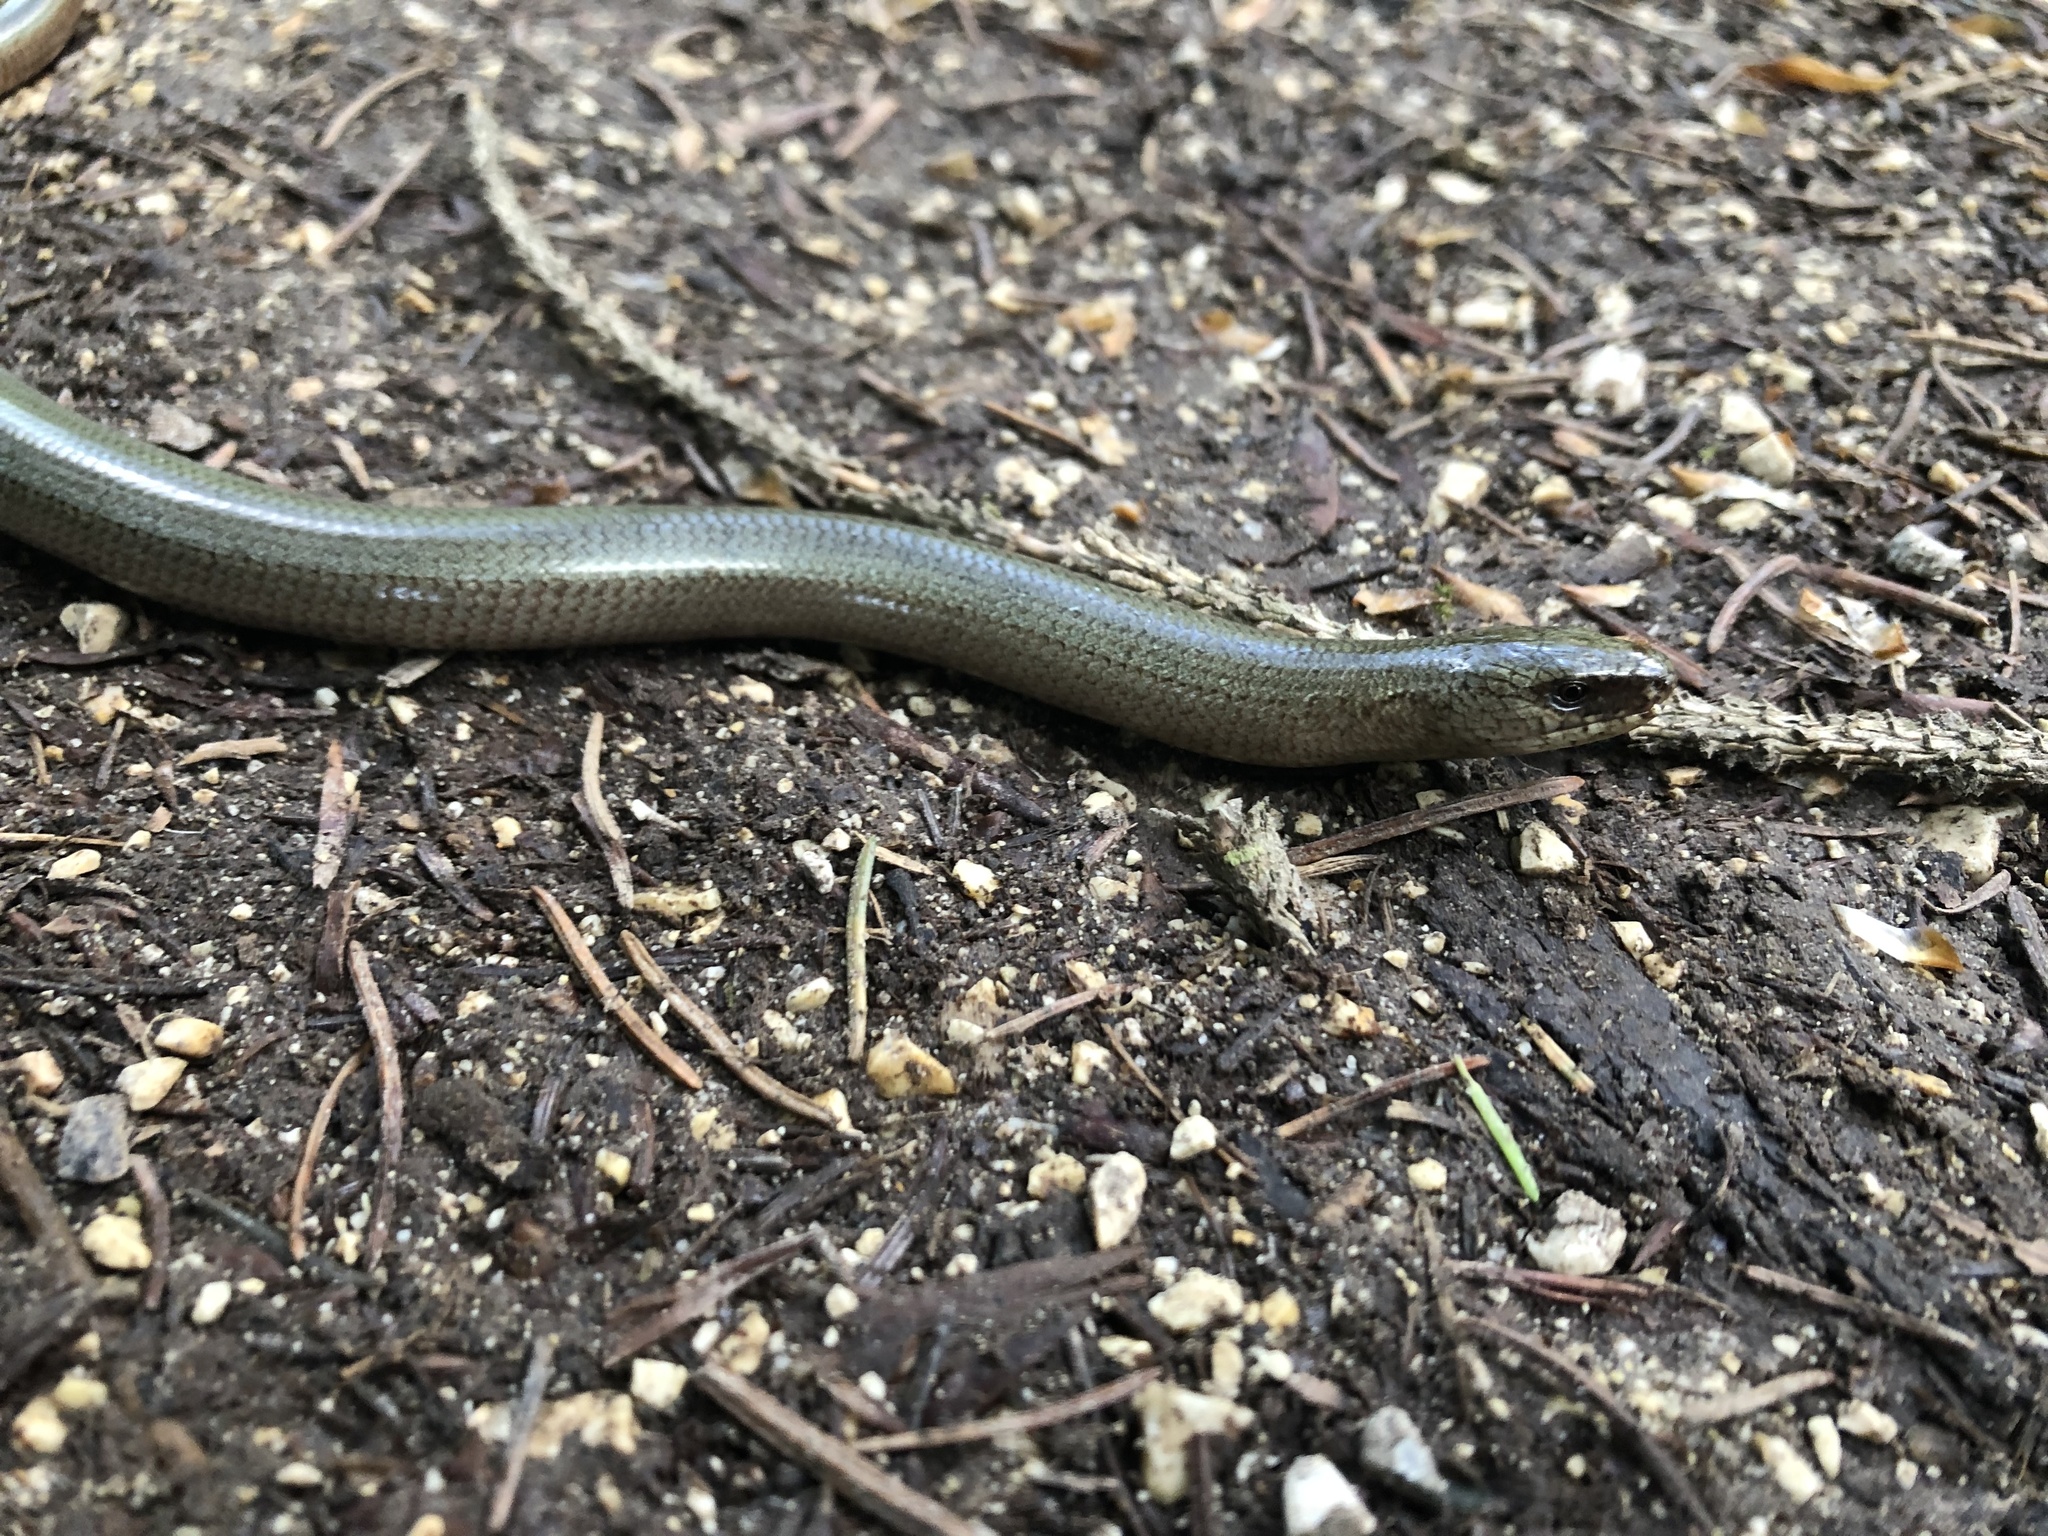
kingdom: Animalia
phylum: Chordata
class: Squamata
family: Anguidae
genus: Anguis
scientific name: Anguis fragilis
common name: Slow worm
